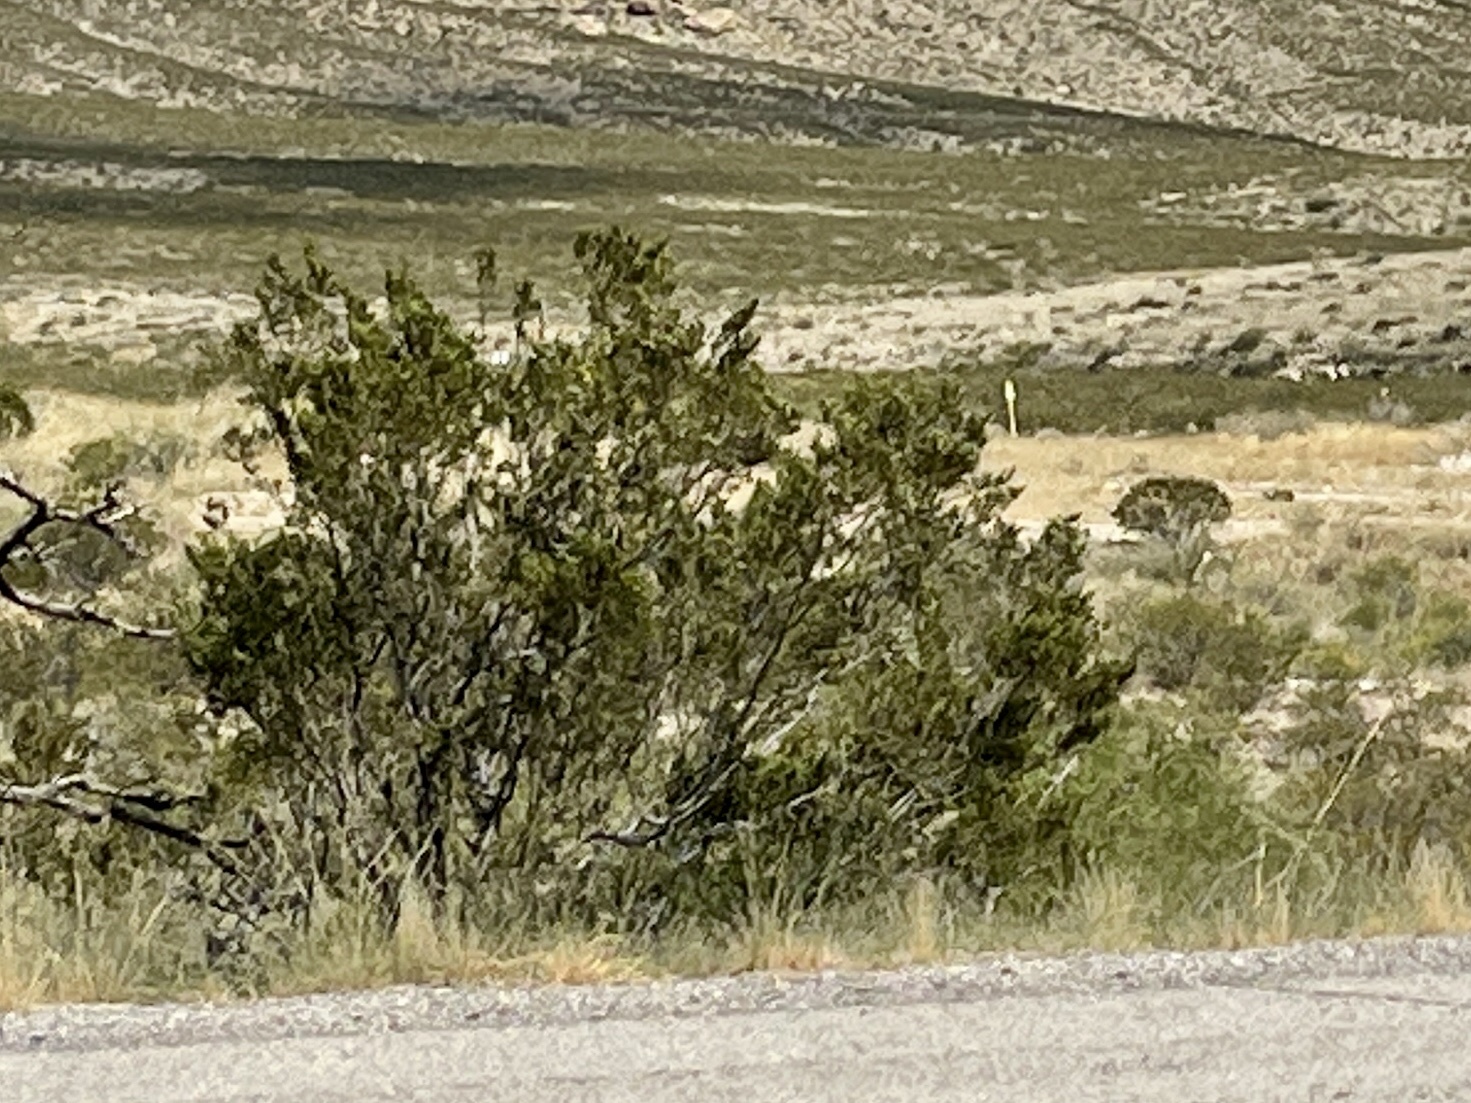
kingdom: Plantae
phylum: Tracheophyta
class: Magnoliopsida
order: Zygophyllales
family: Zygophyllaceae
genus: Larrea
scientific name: Larrea tridentata
